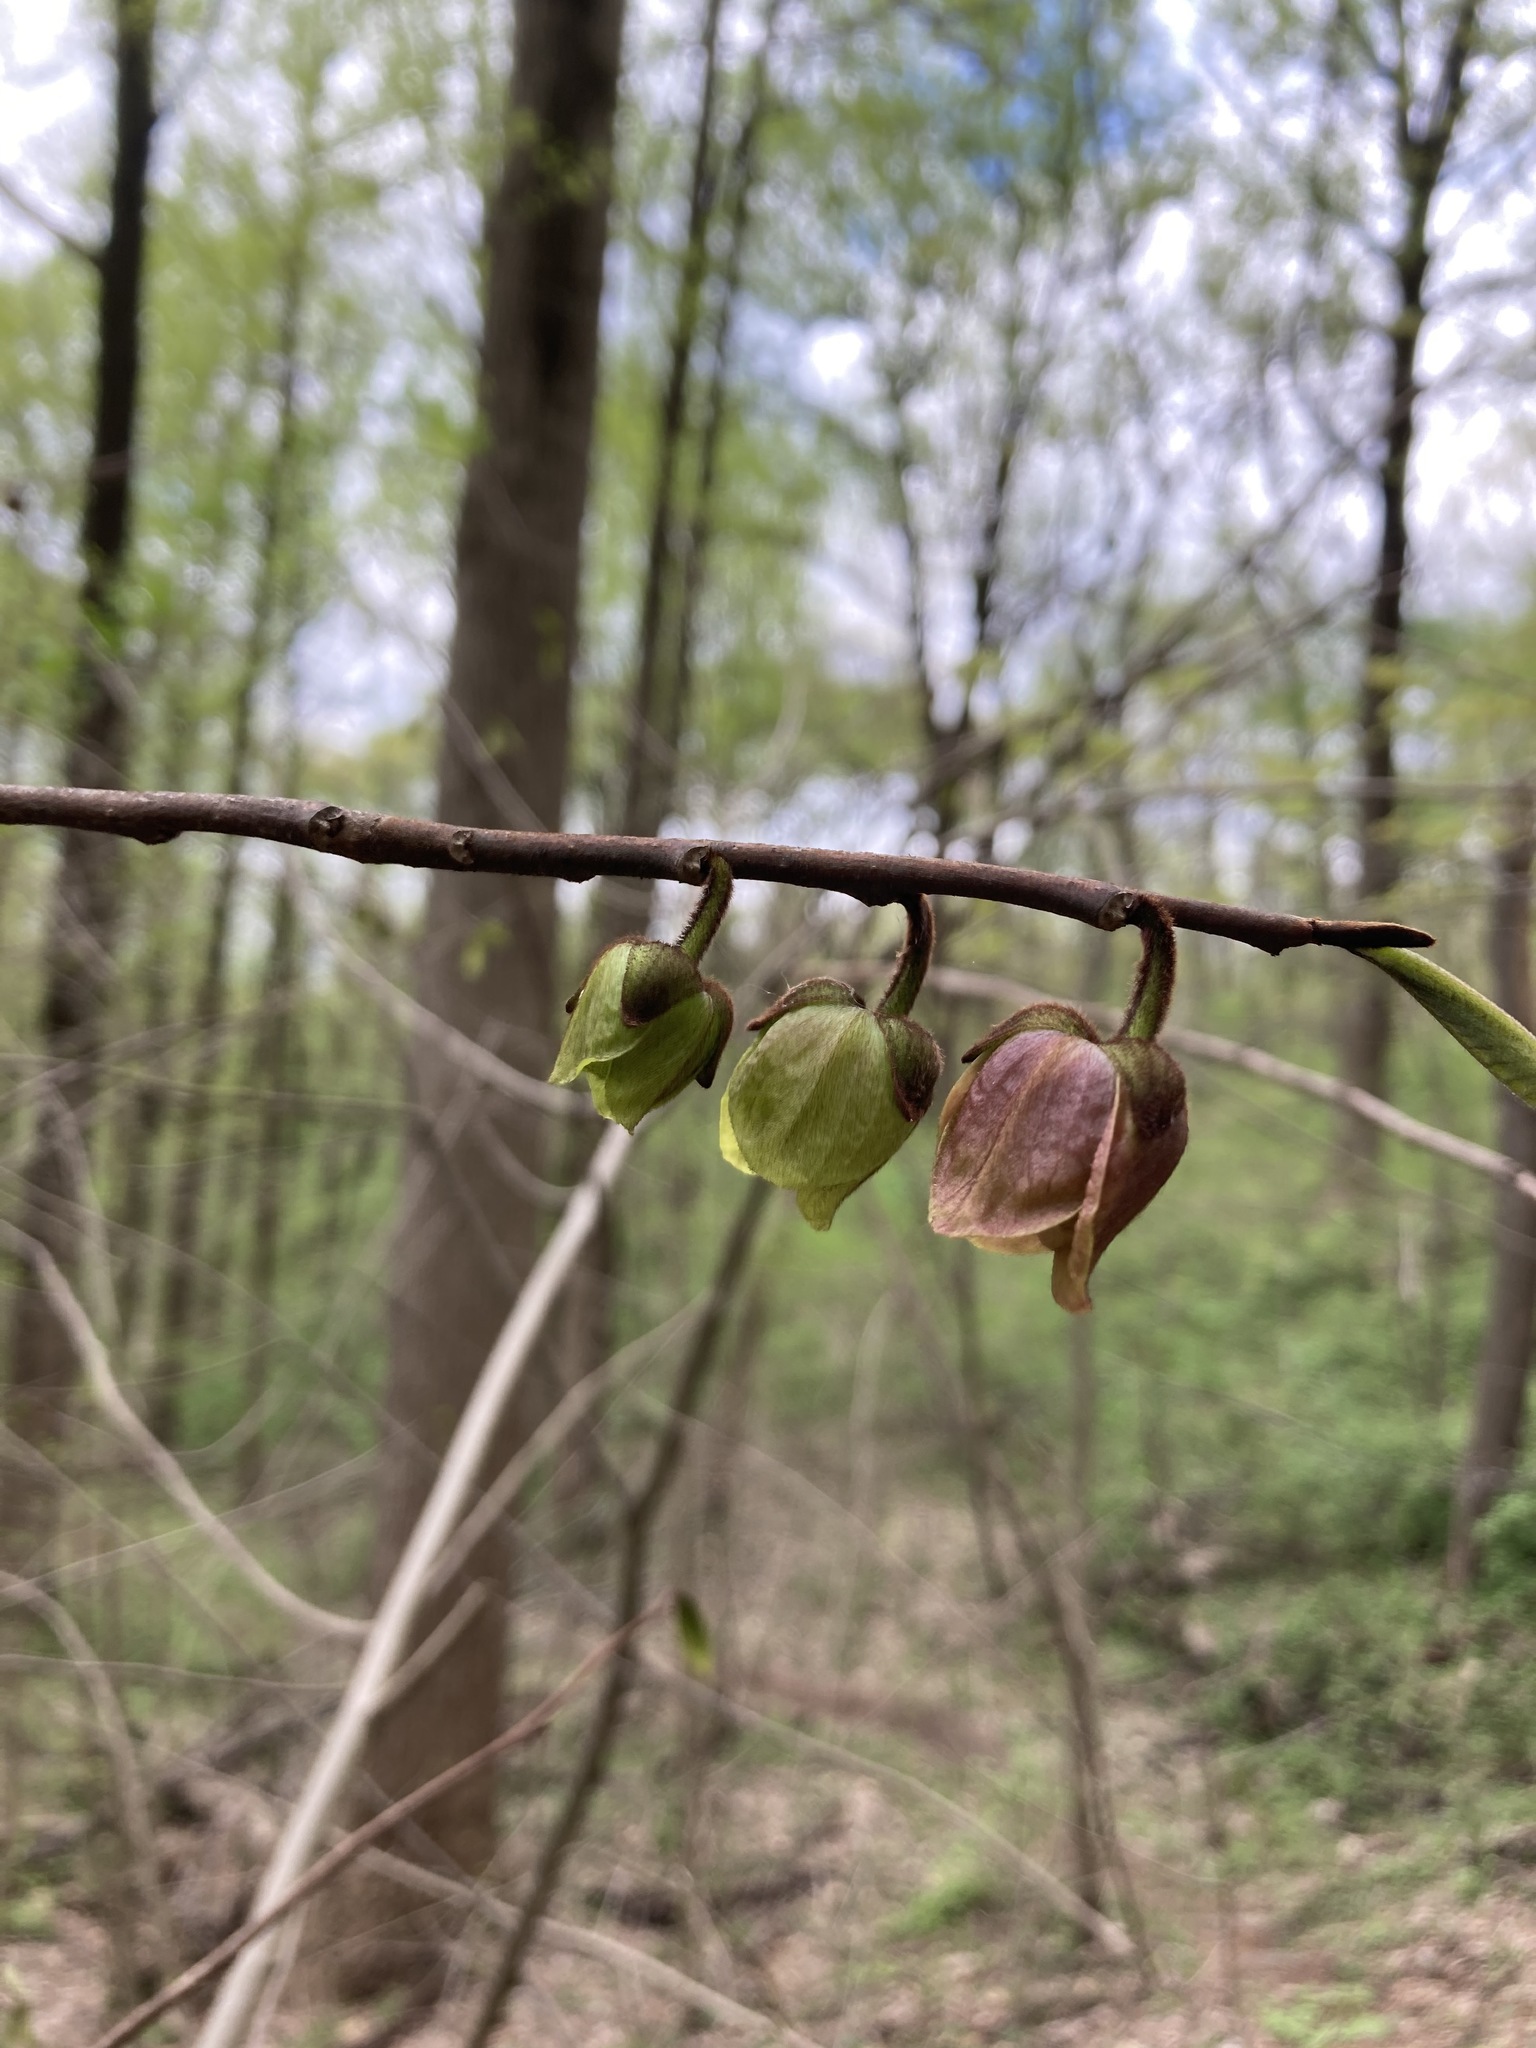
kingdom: Plantae
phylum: Tracheophyta
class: Magnoliopsida
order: Magnoliales
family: Annonaceae
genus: Asimina
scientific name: Asimina triloba
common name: Dog-banana
